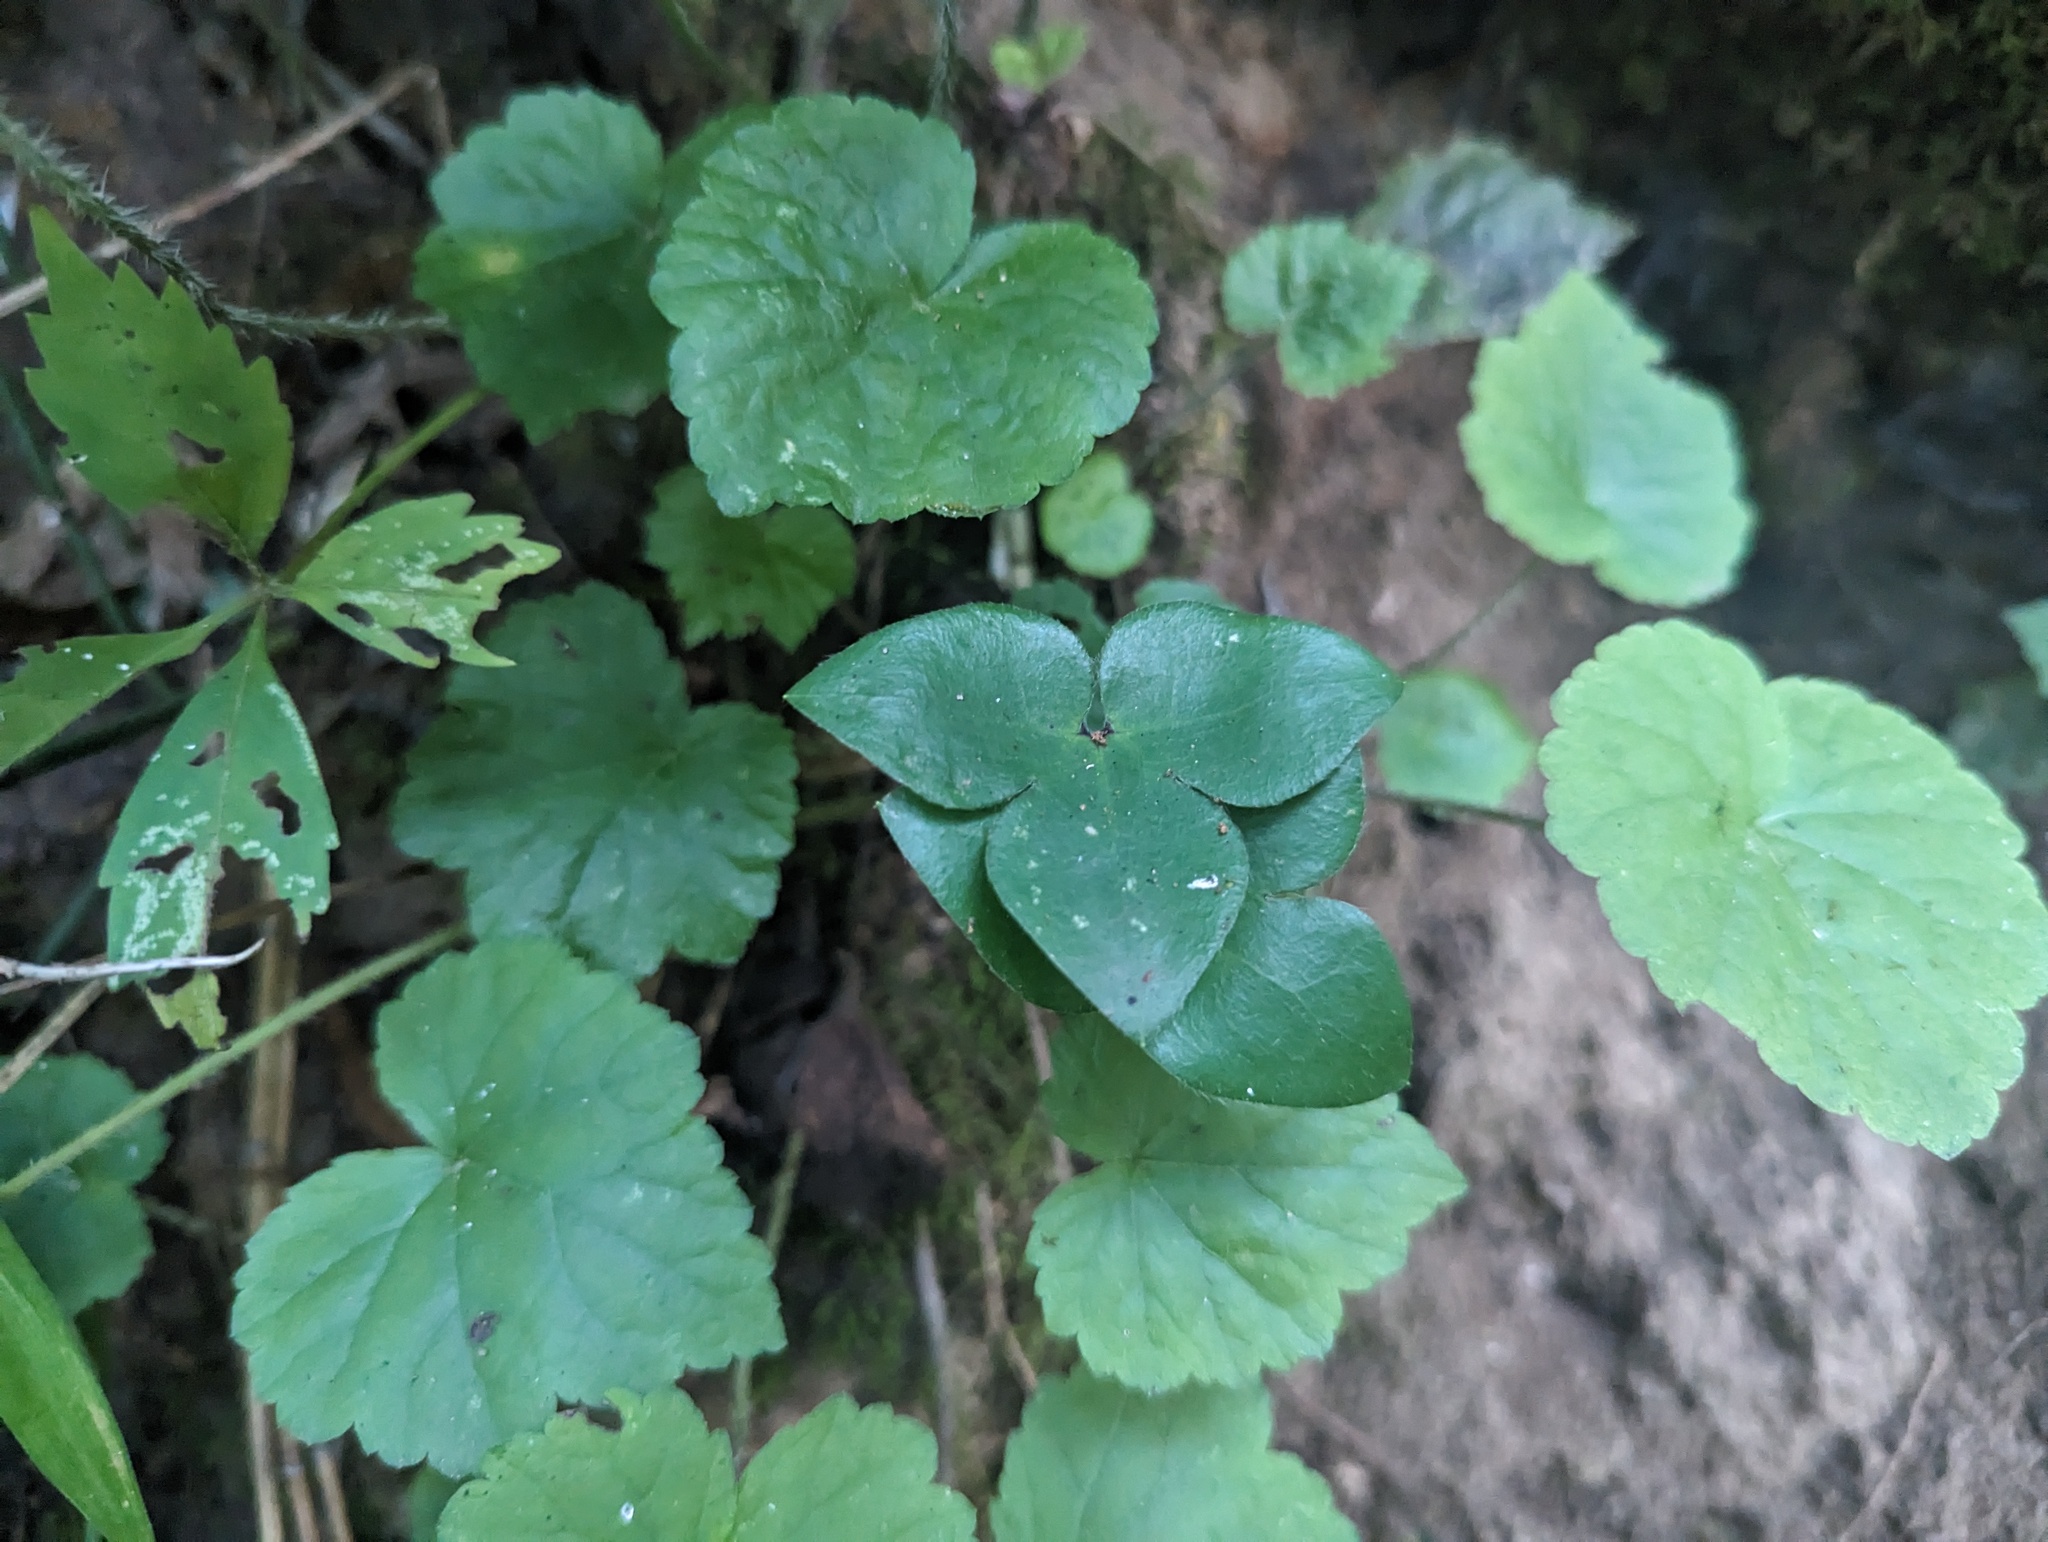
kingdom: Plantae
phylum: Tracheophyta
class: Magnoliopsida
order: Ranunculales
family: Ranunculaceae
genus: Hepatica
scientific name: Hepatica acutiloba
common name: Sharp-lobed hepatica
